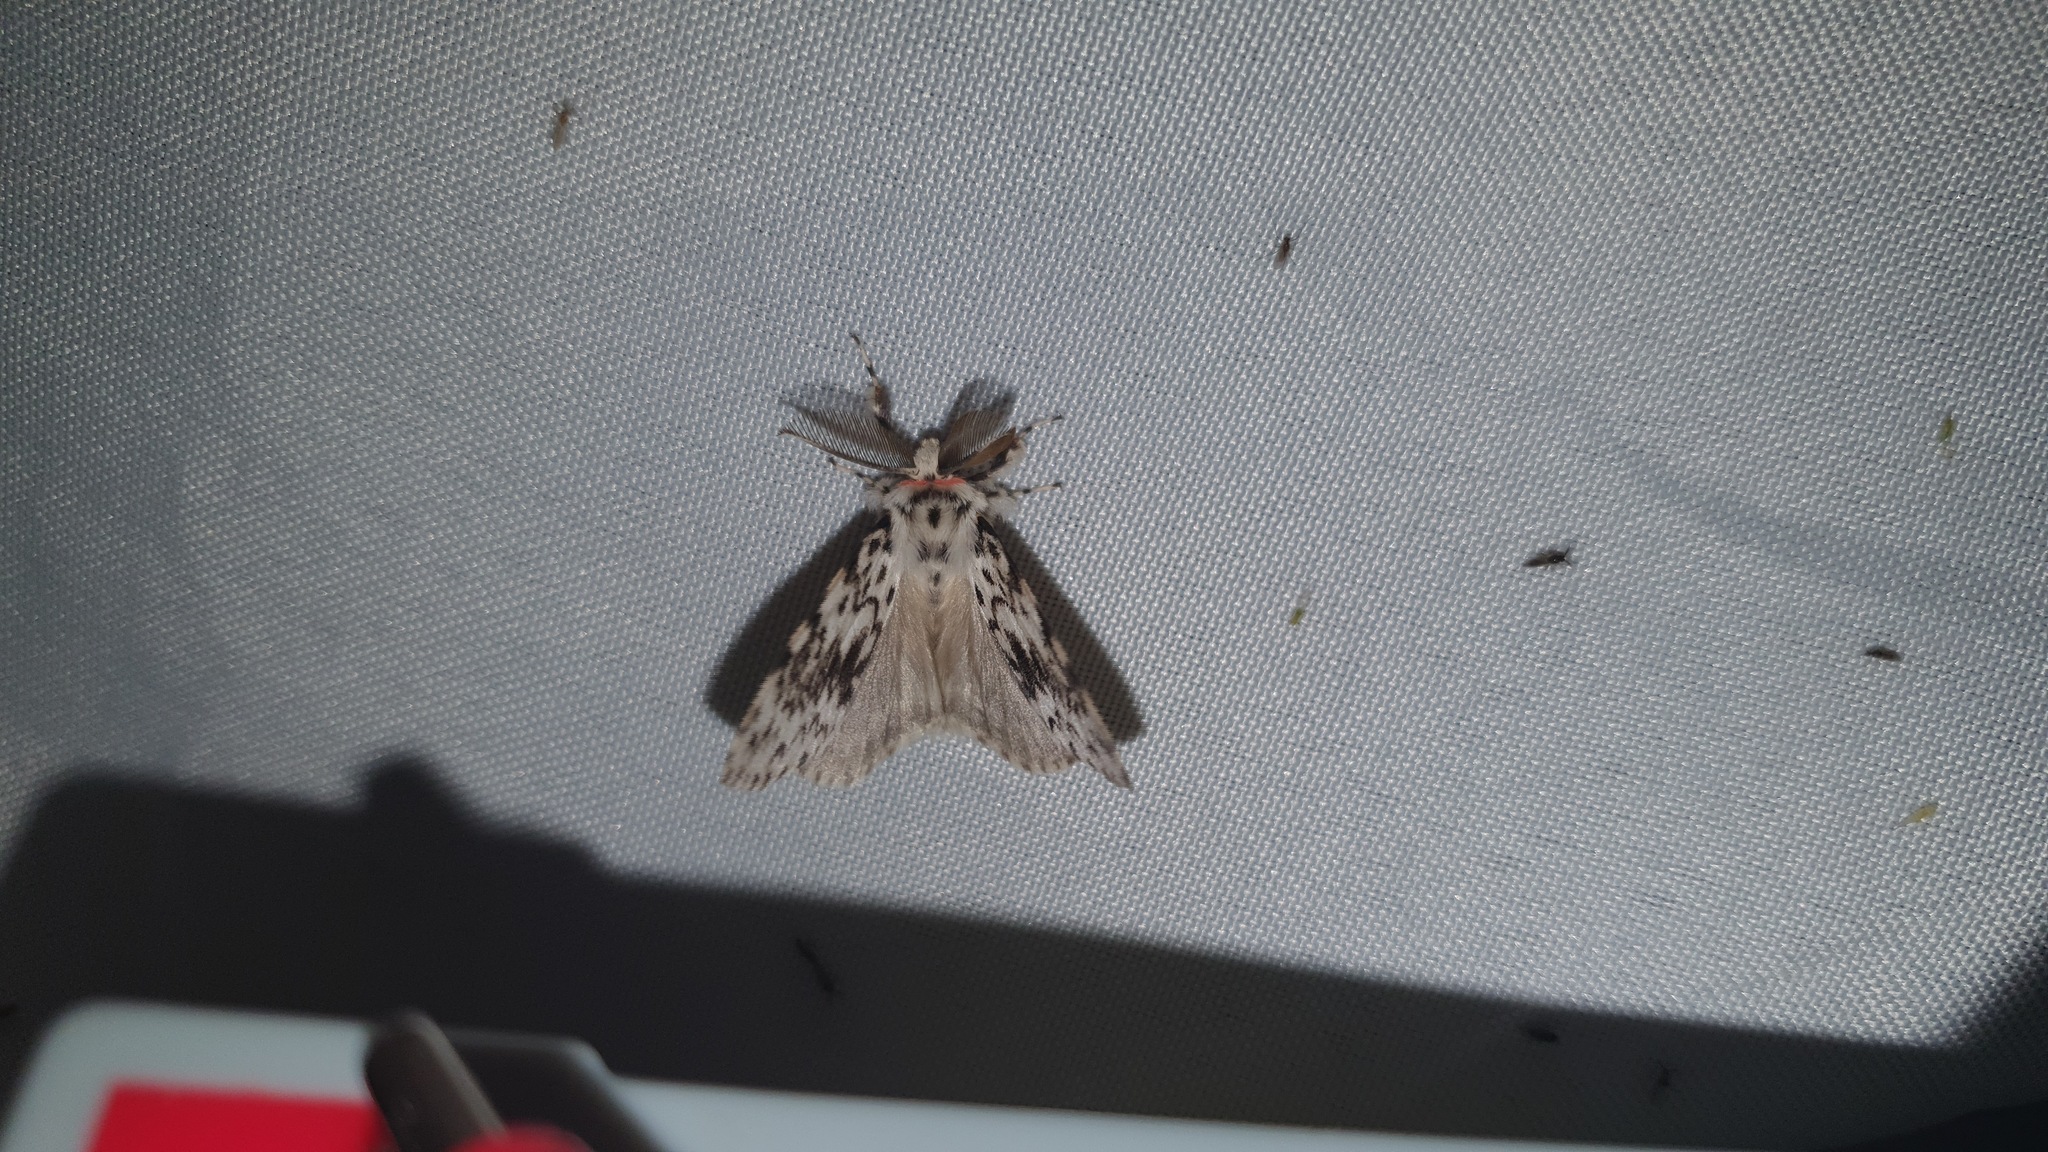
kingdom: Animalia
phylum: Arthropoda
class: Insecta
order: Lepidoptera
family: Erebidae
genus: Lymantria
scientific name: Lymantria monacha
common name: Black arches
